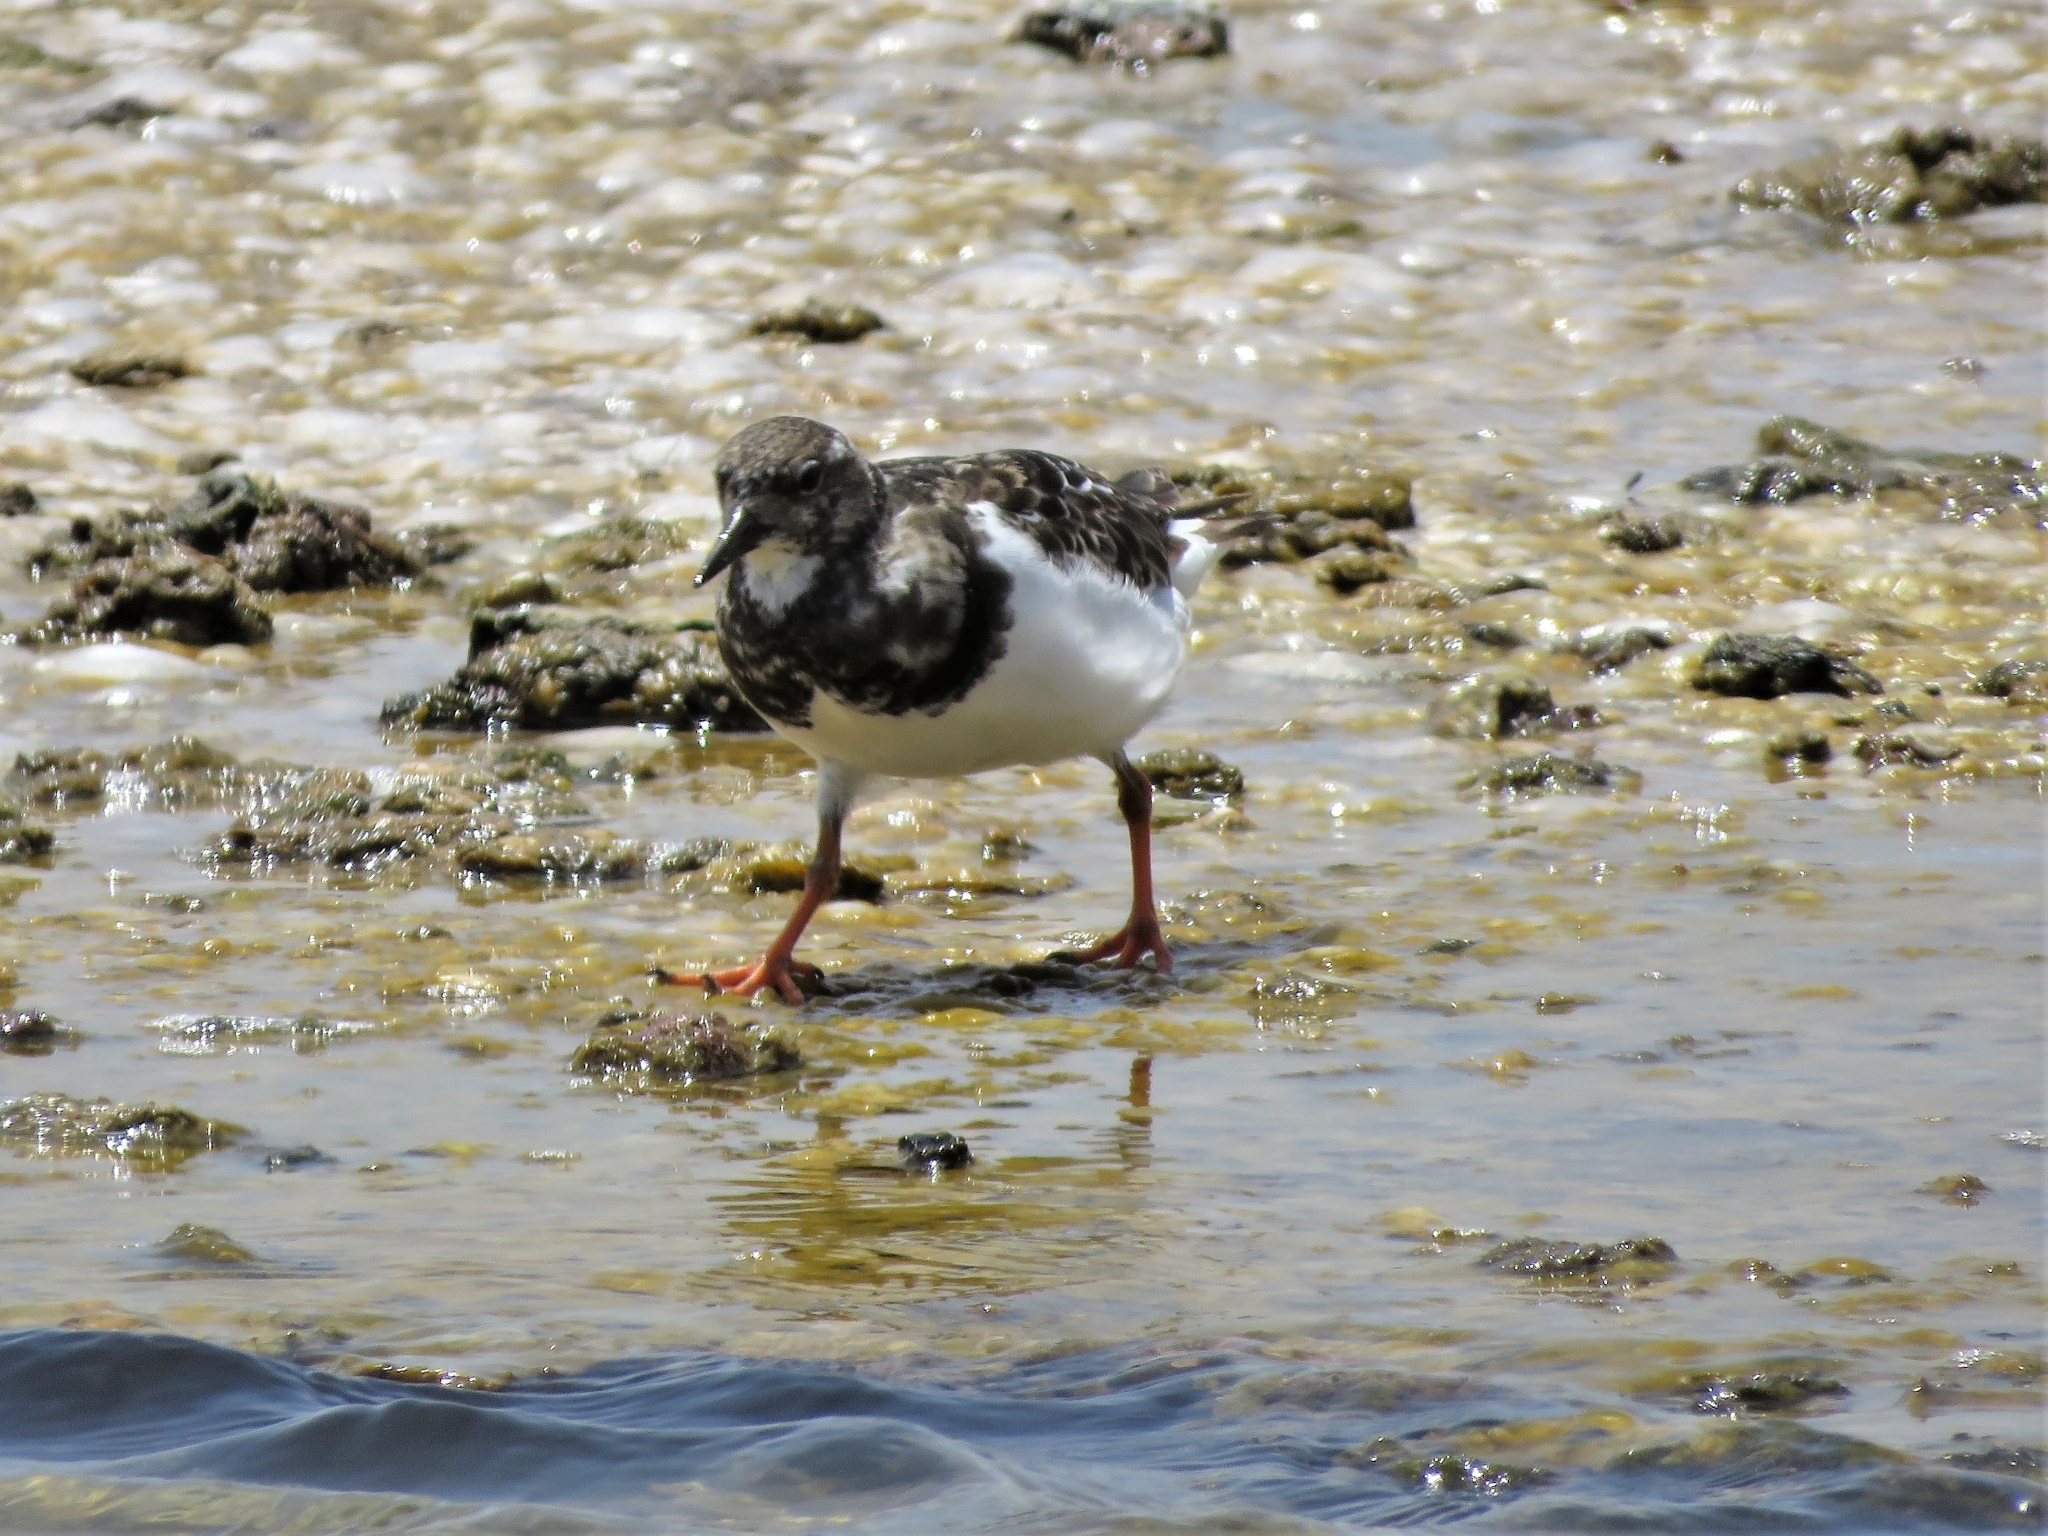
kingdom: Animalia
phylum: Chordata
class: Aves
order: Charadriiformes
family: Scolopacidae
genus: Arenaria
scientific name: Arenaria interpres
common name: Ruddy turnstone
